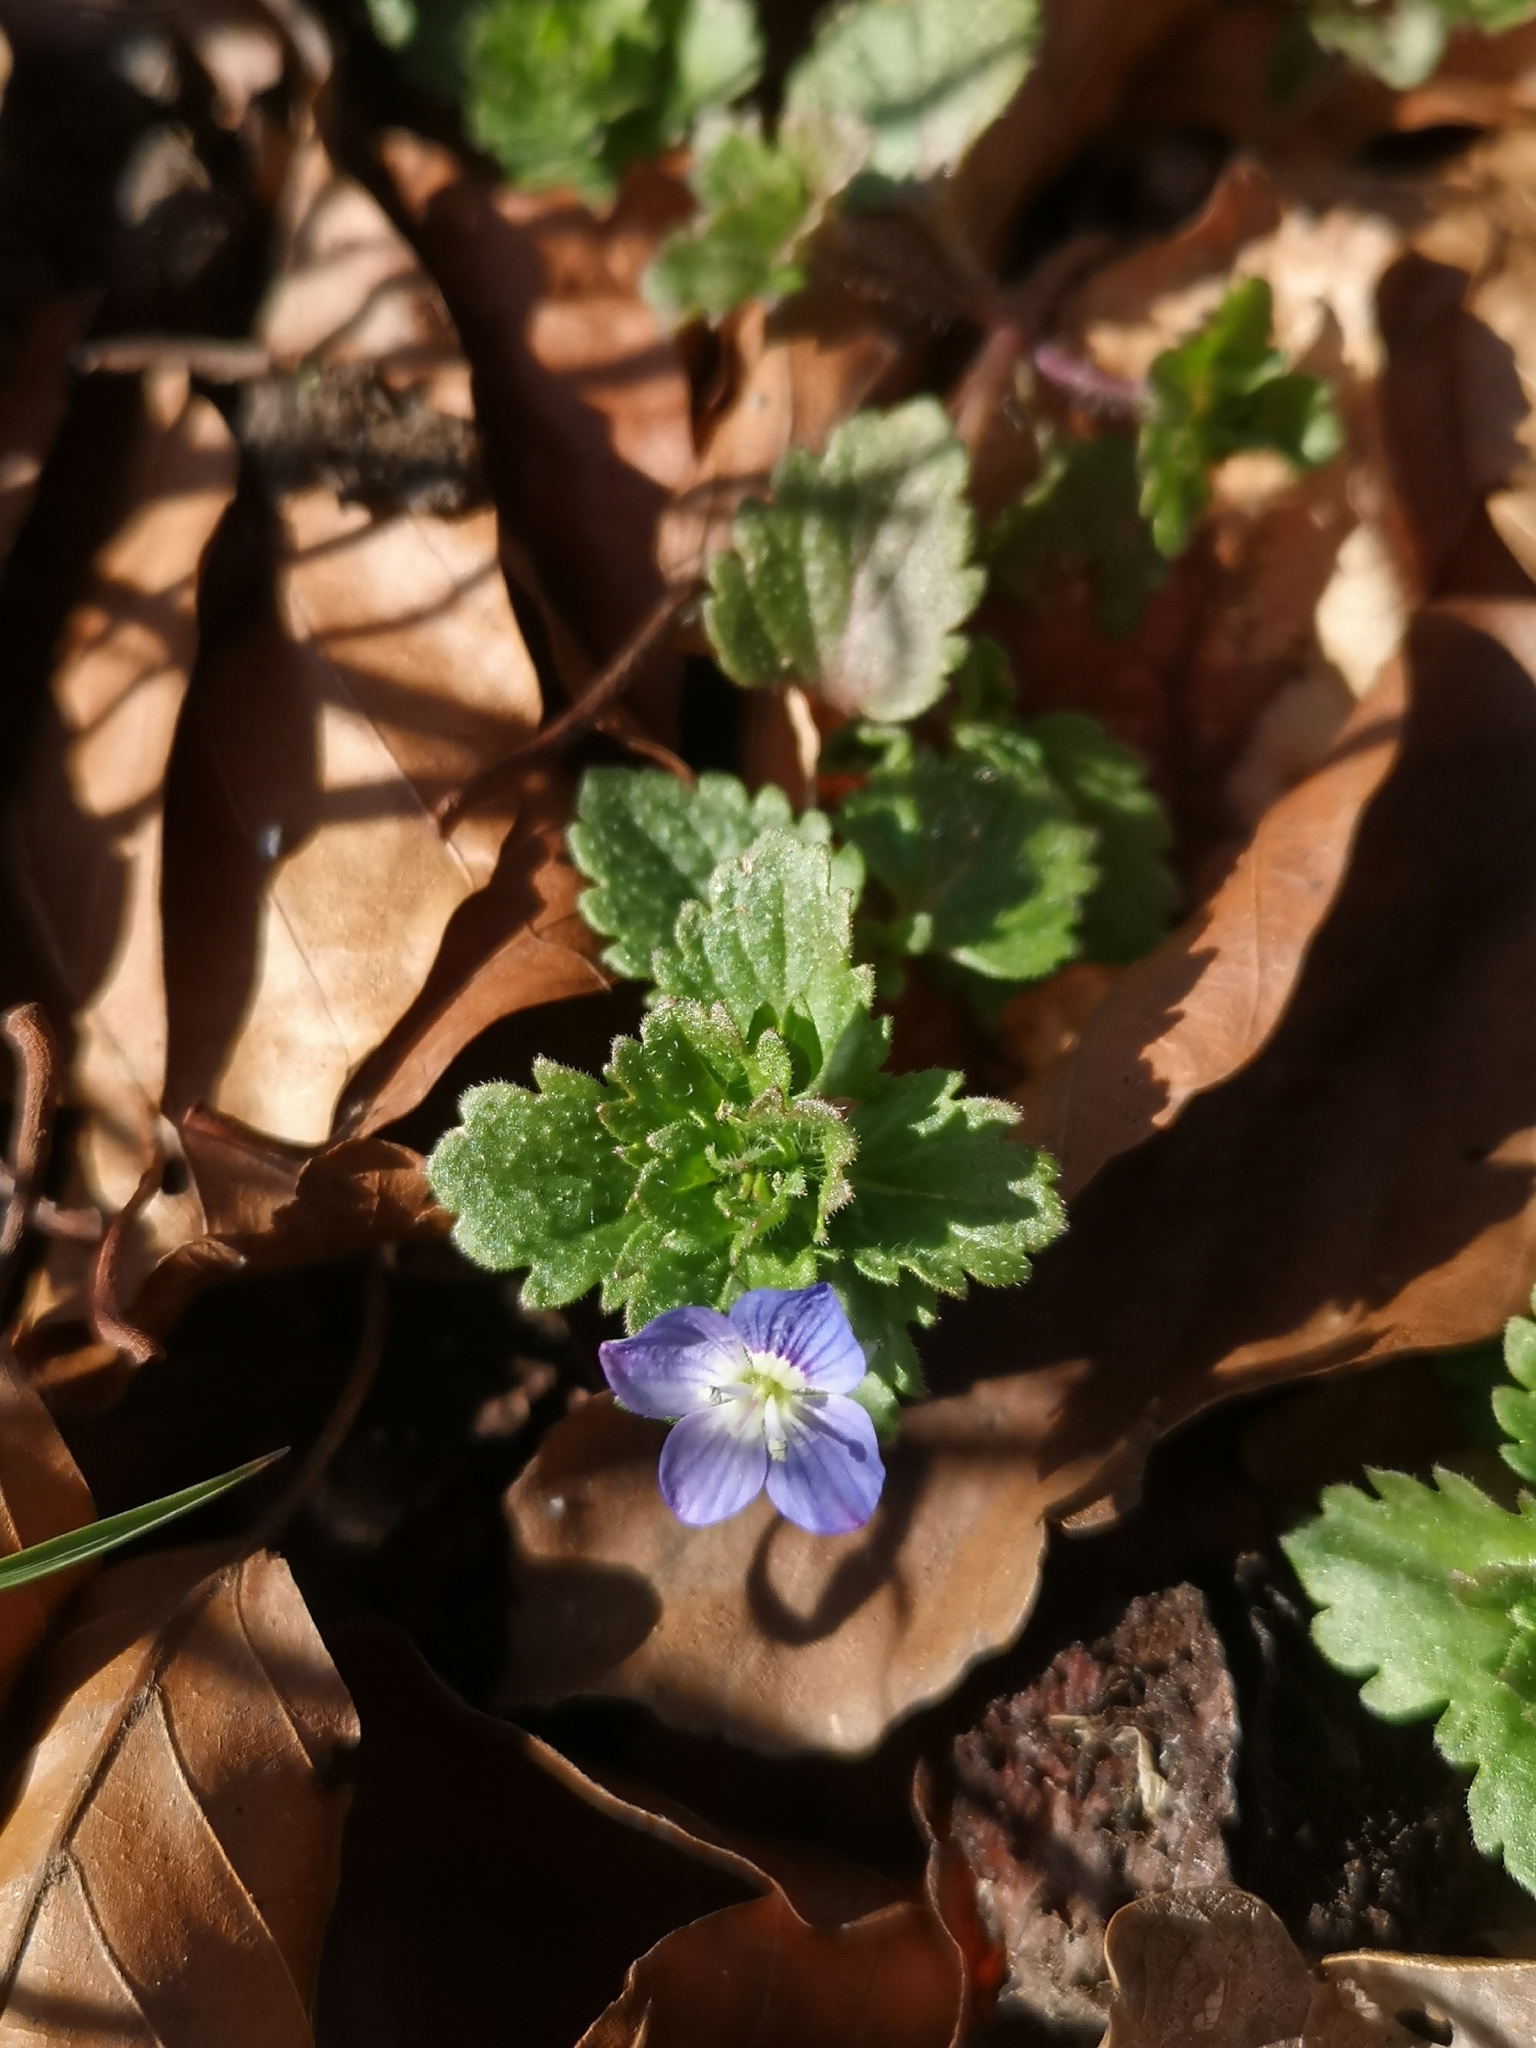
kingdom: Plantae
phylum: Tracheophyta
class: Magnoliopsida
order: Lamiales
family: Plantaginaceae
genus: Veronica
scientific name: Veronica persica
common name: Common field-speedwell
